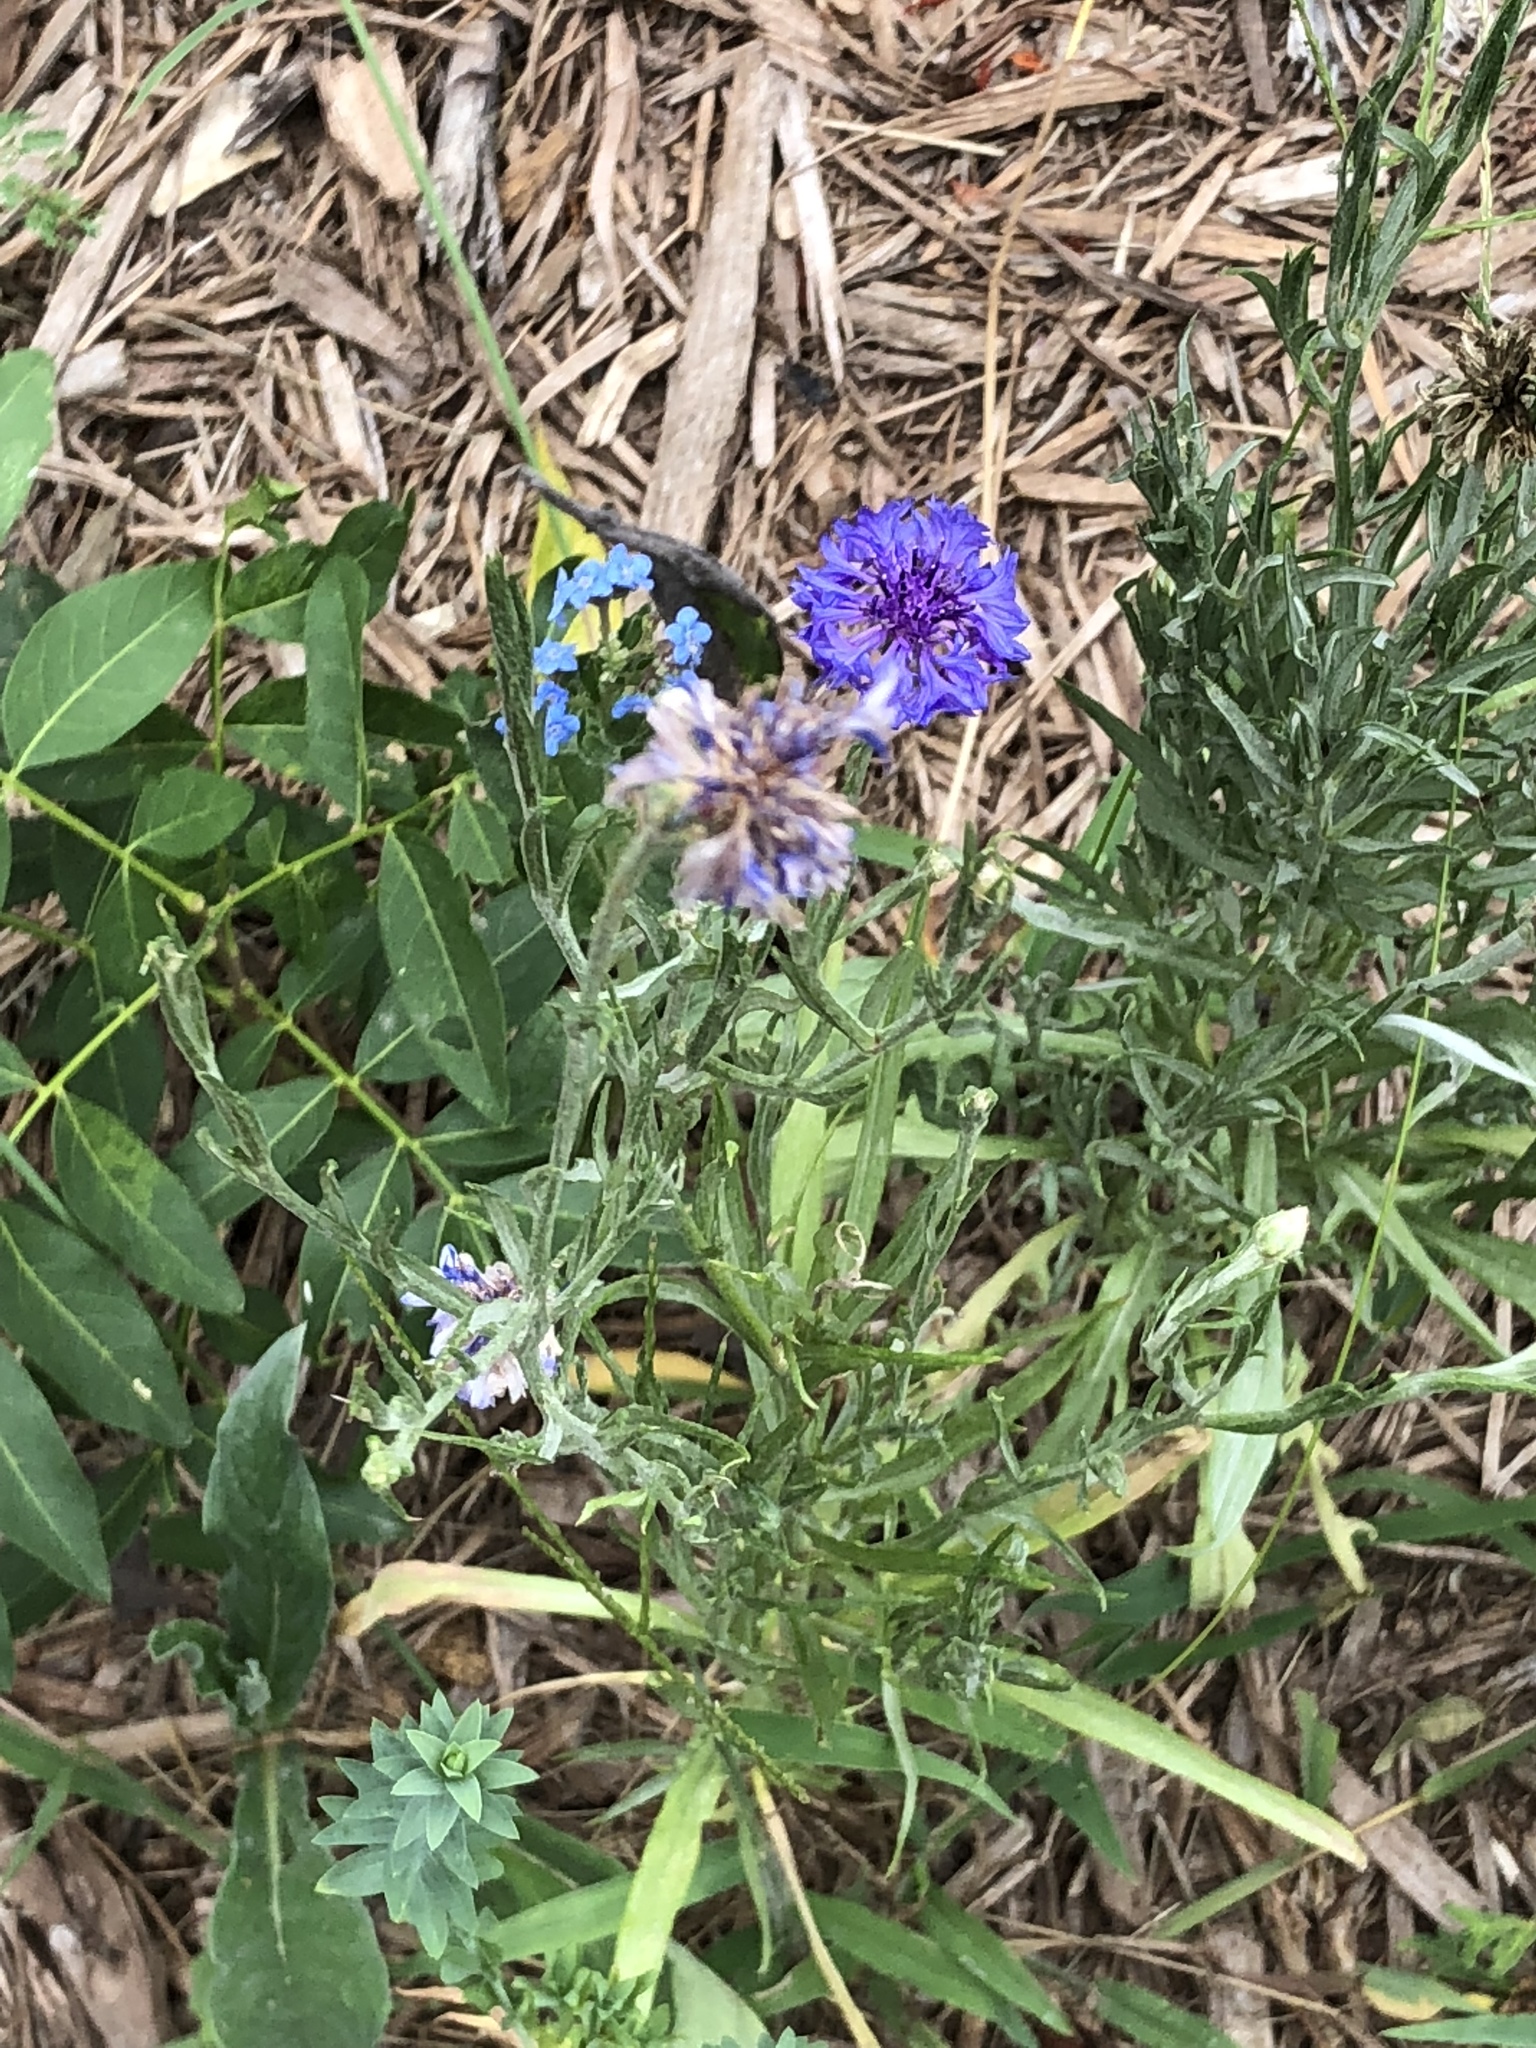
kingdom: Plantae
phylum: Tracheophyta
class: Magnoliopsida
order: Asterales
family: Asteraceae
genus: Centaurea
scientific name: Centaurea cyanus
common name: Cornflower
